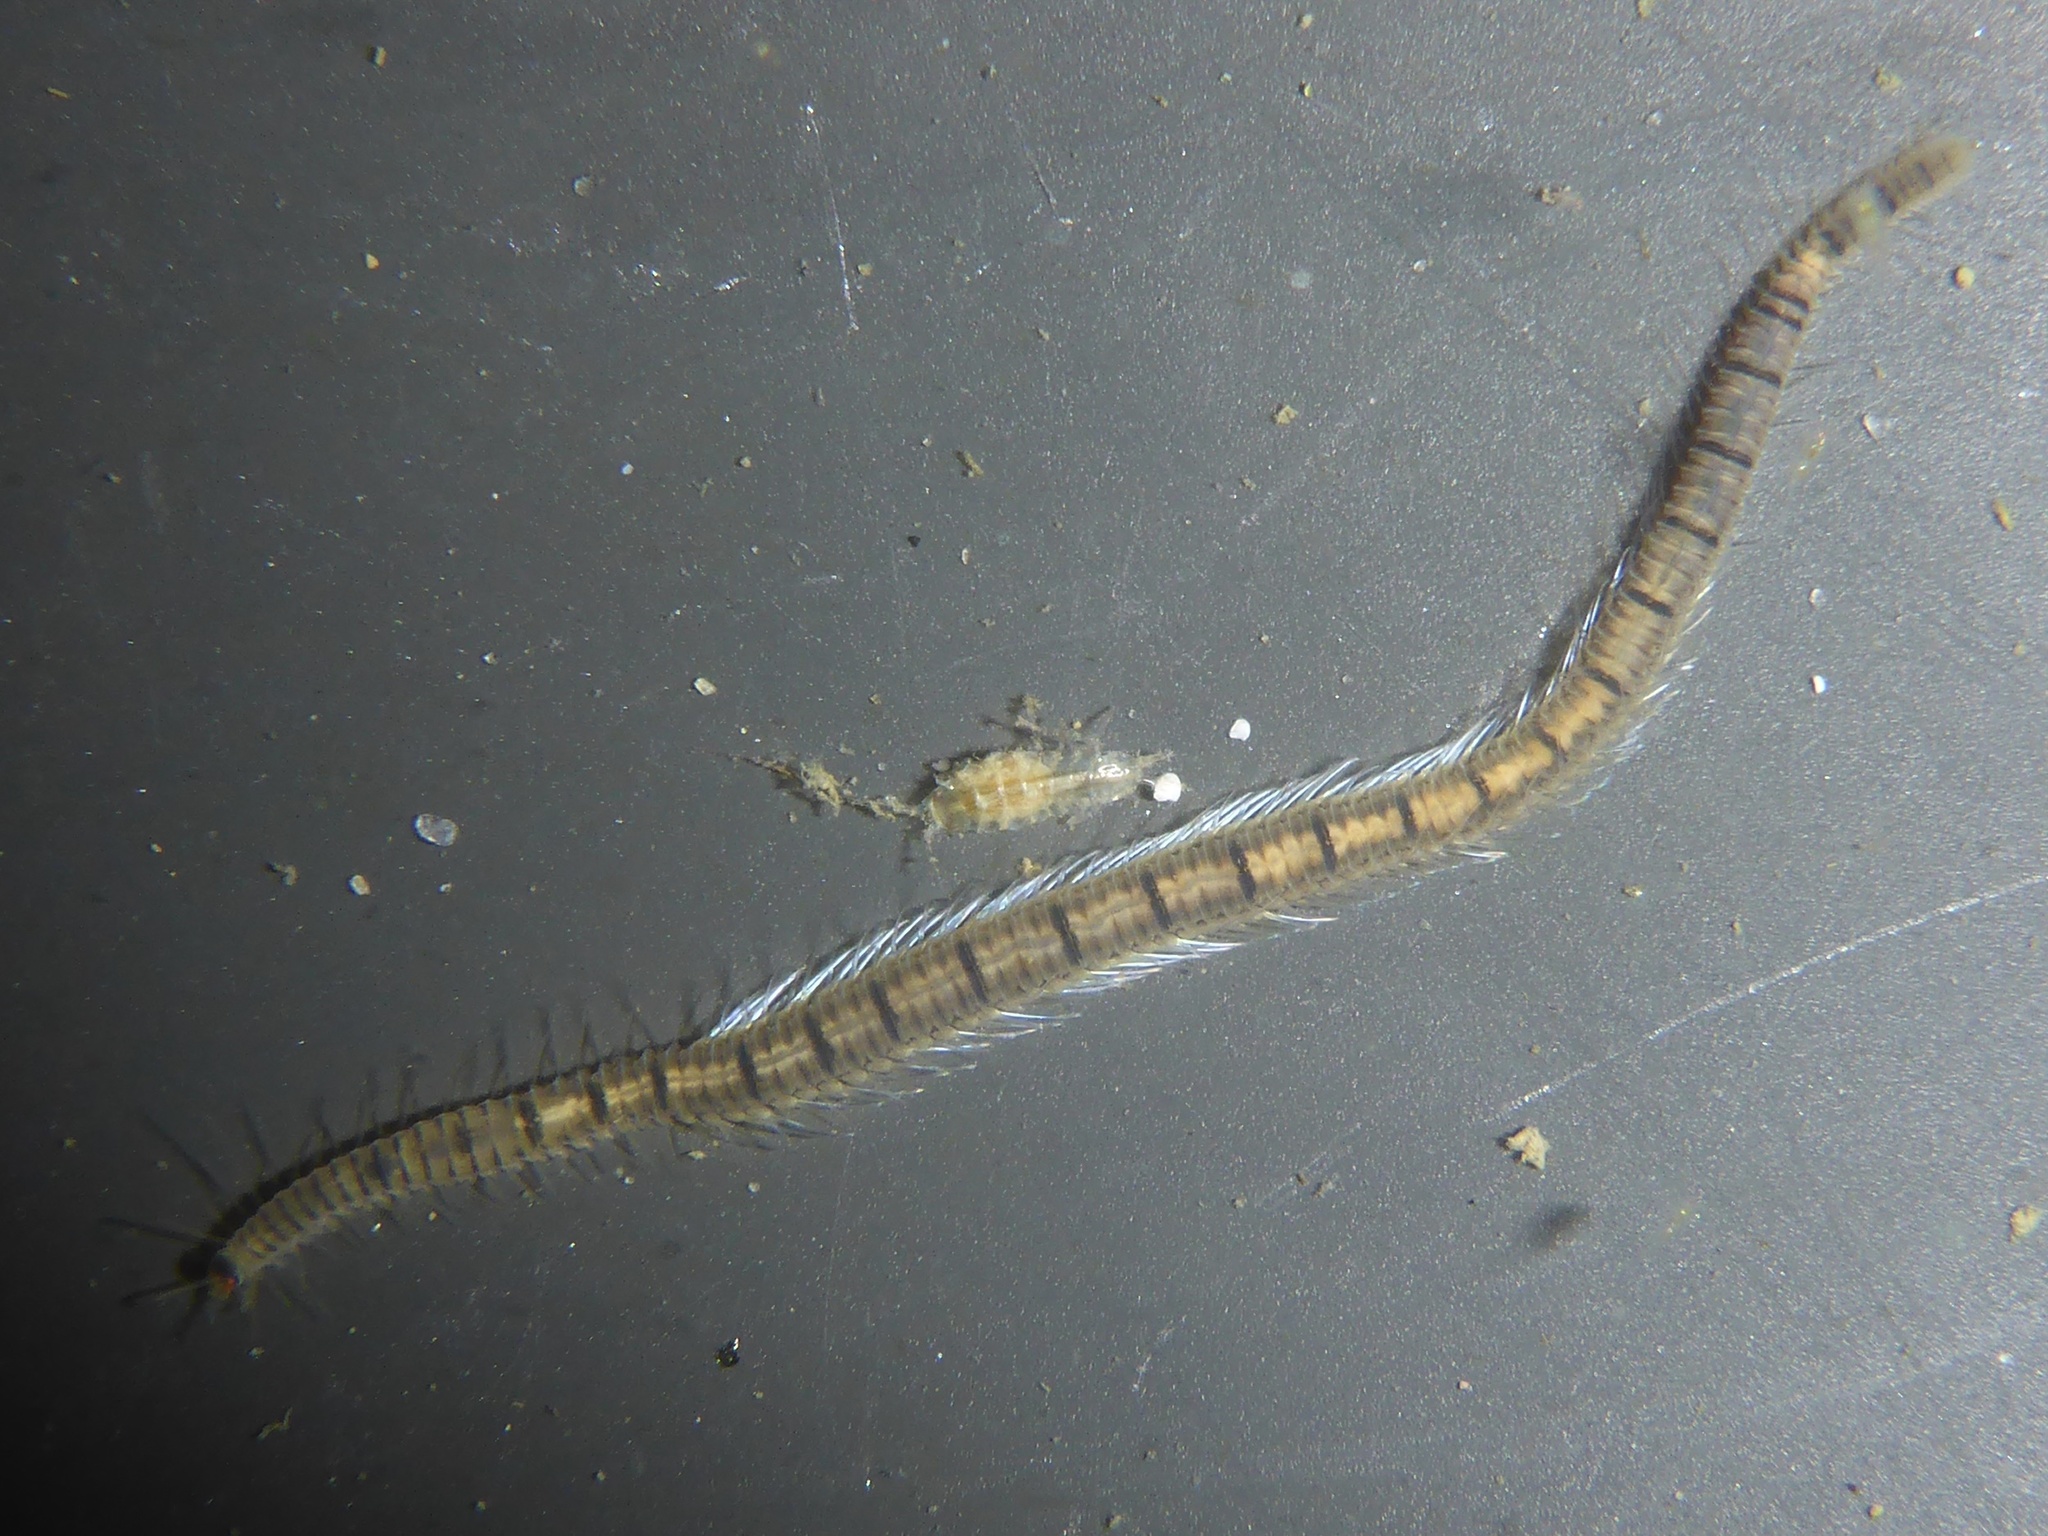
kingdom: Animalia
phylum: Annelida
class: Polychaeta
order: Phyllodocida
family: Syllidae
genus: Odontosyllis
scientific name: Odontosyllis phosphorea
